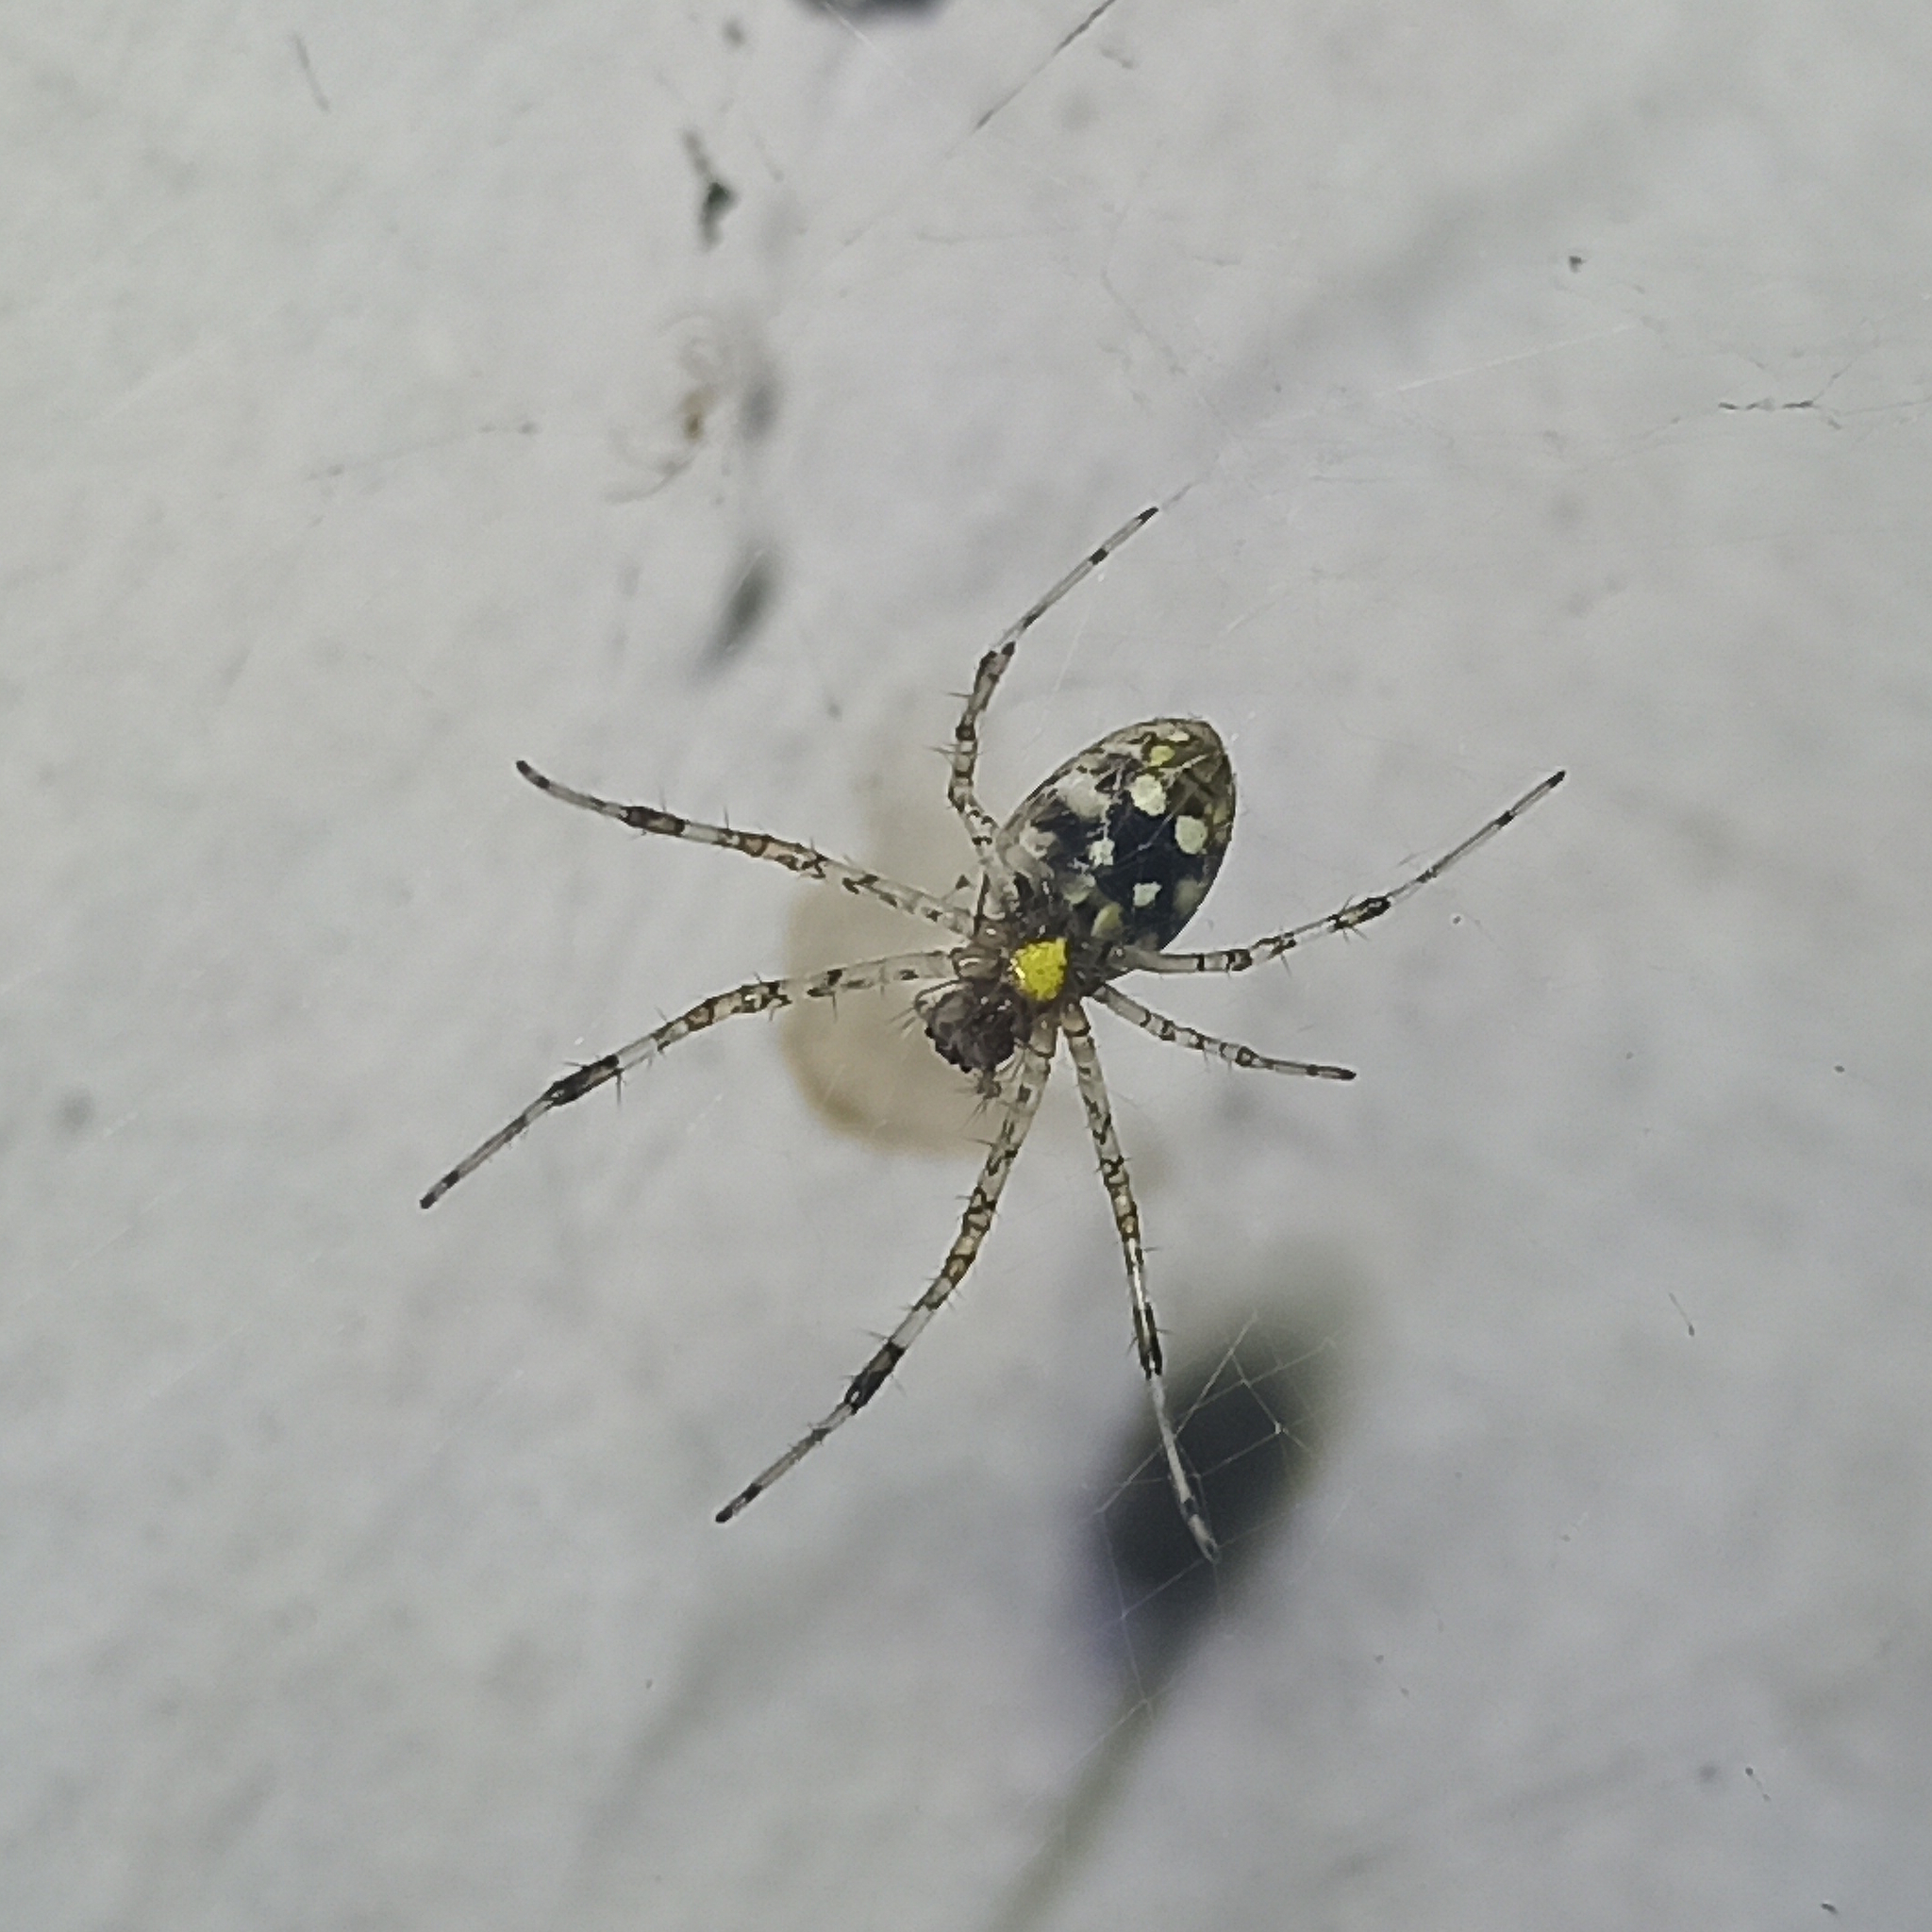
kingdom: Animalia
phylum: Arthropoda
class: Arachnida
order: Araneae
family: Araneidae
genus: Nephilingis
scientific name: Nephilingis cruentata
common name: African hermit spider
